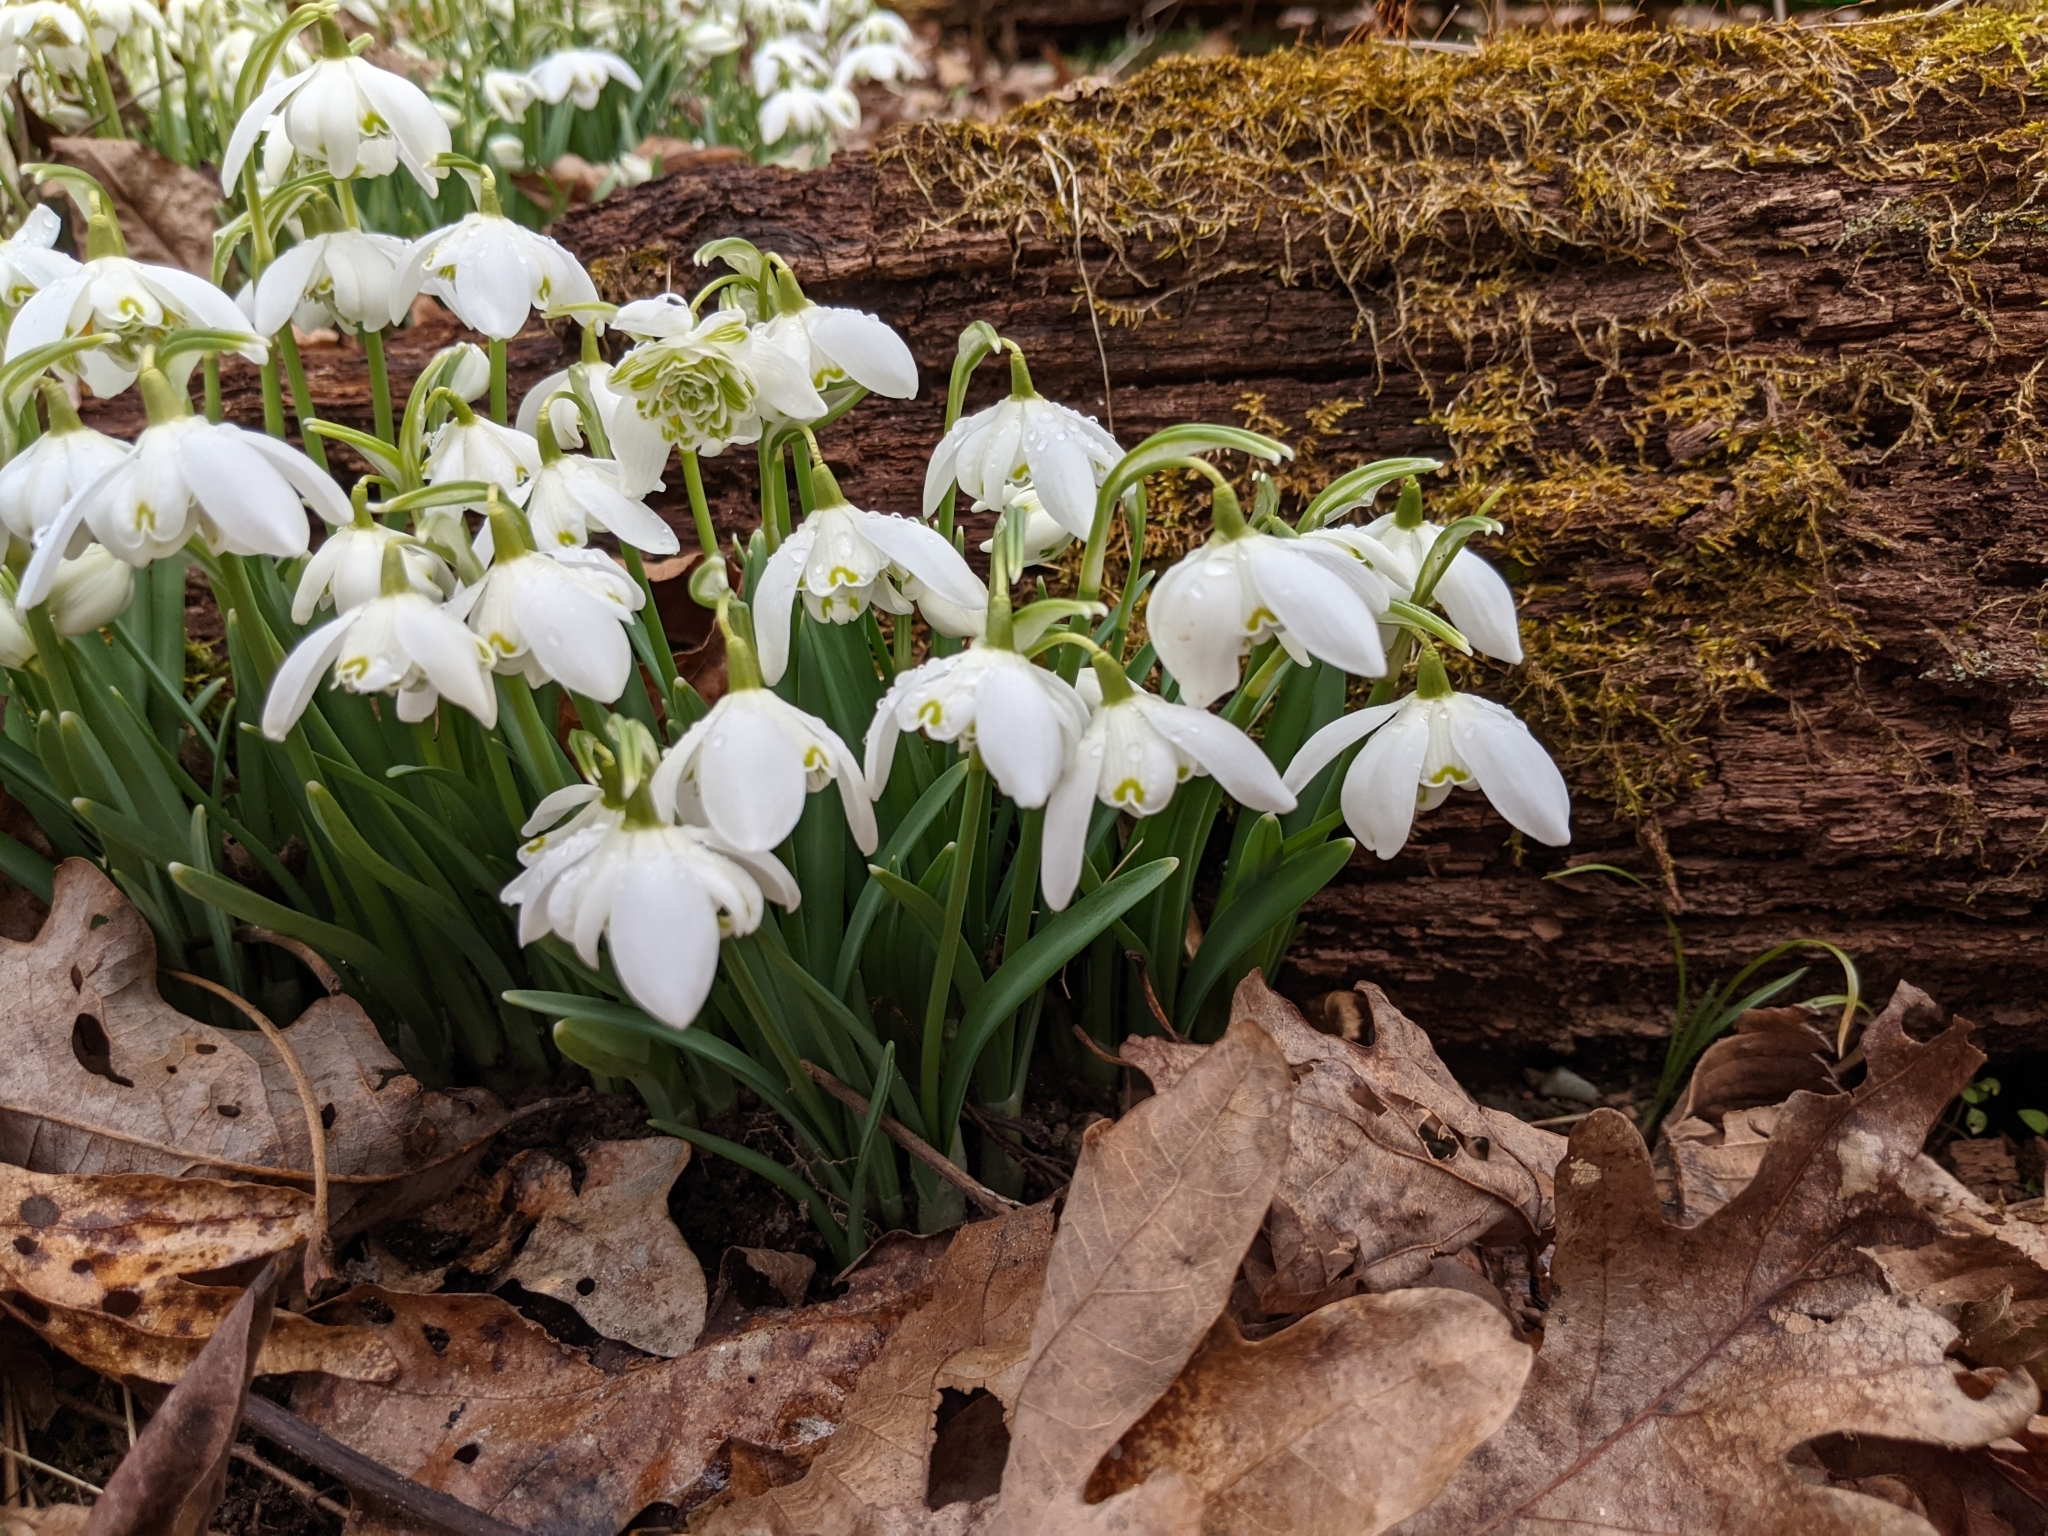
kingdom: Plantae
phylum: Tracheophyta
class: Liliopsida
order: Asparagales
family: Amaryllidaceae
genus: Galanthus
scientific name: Galanthus nivalis
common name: Snowdrop
